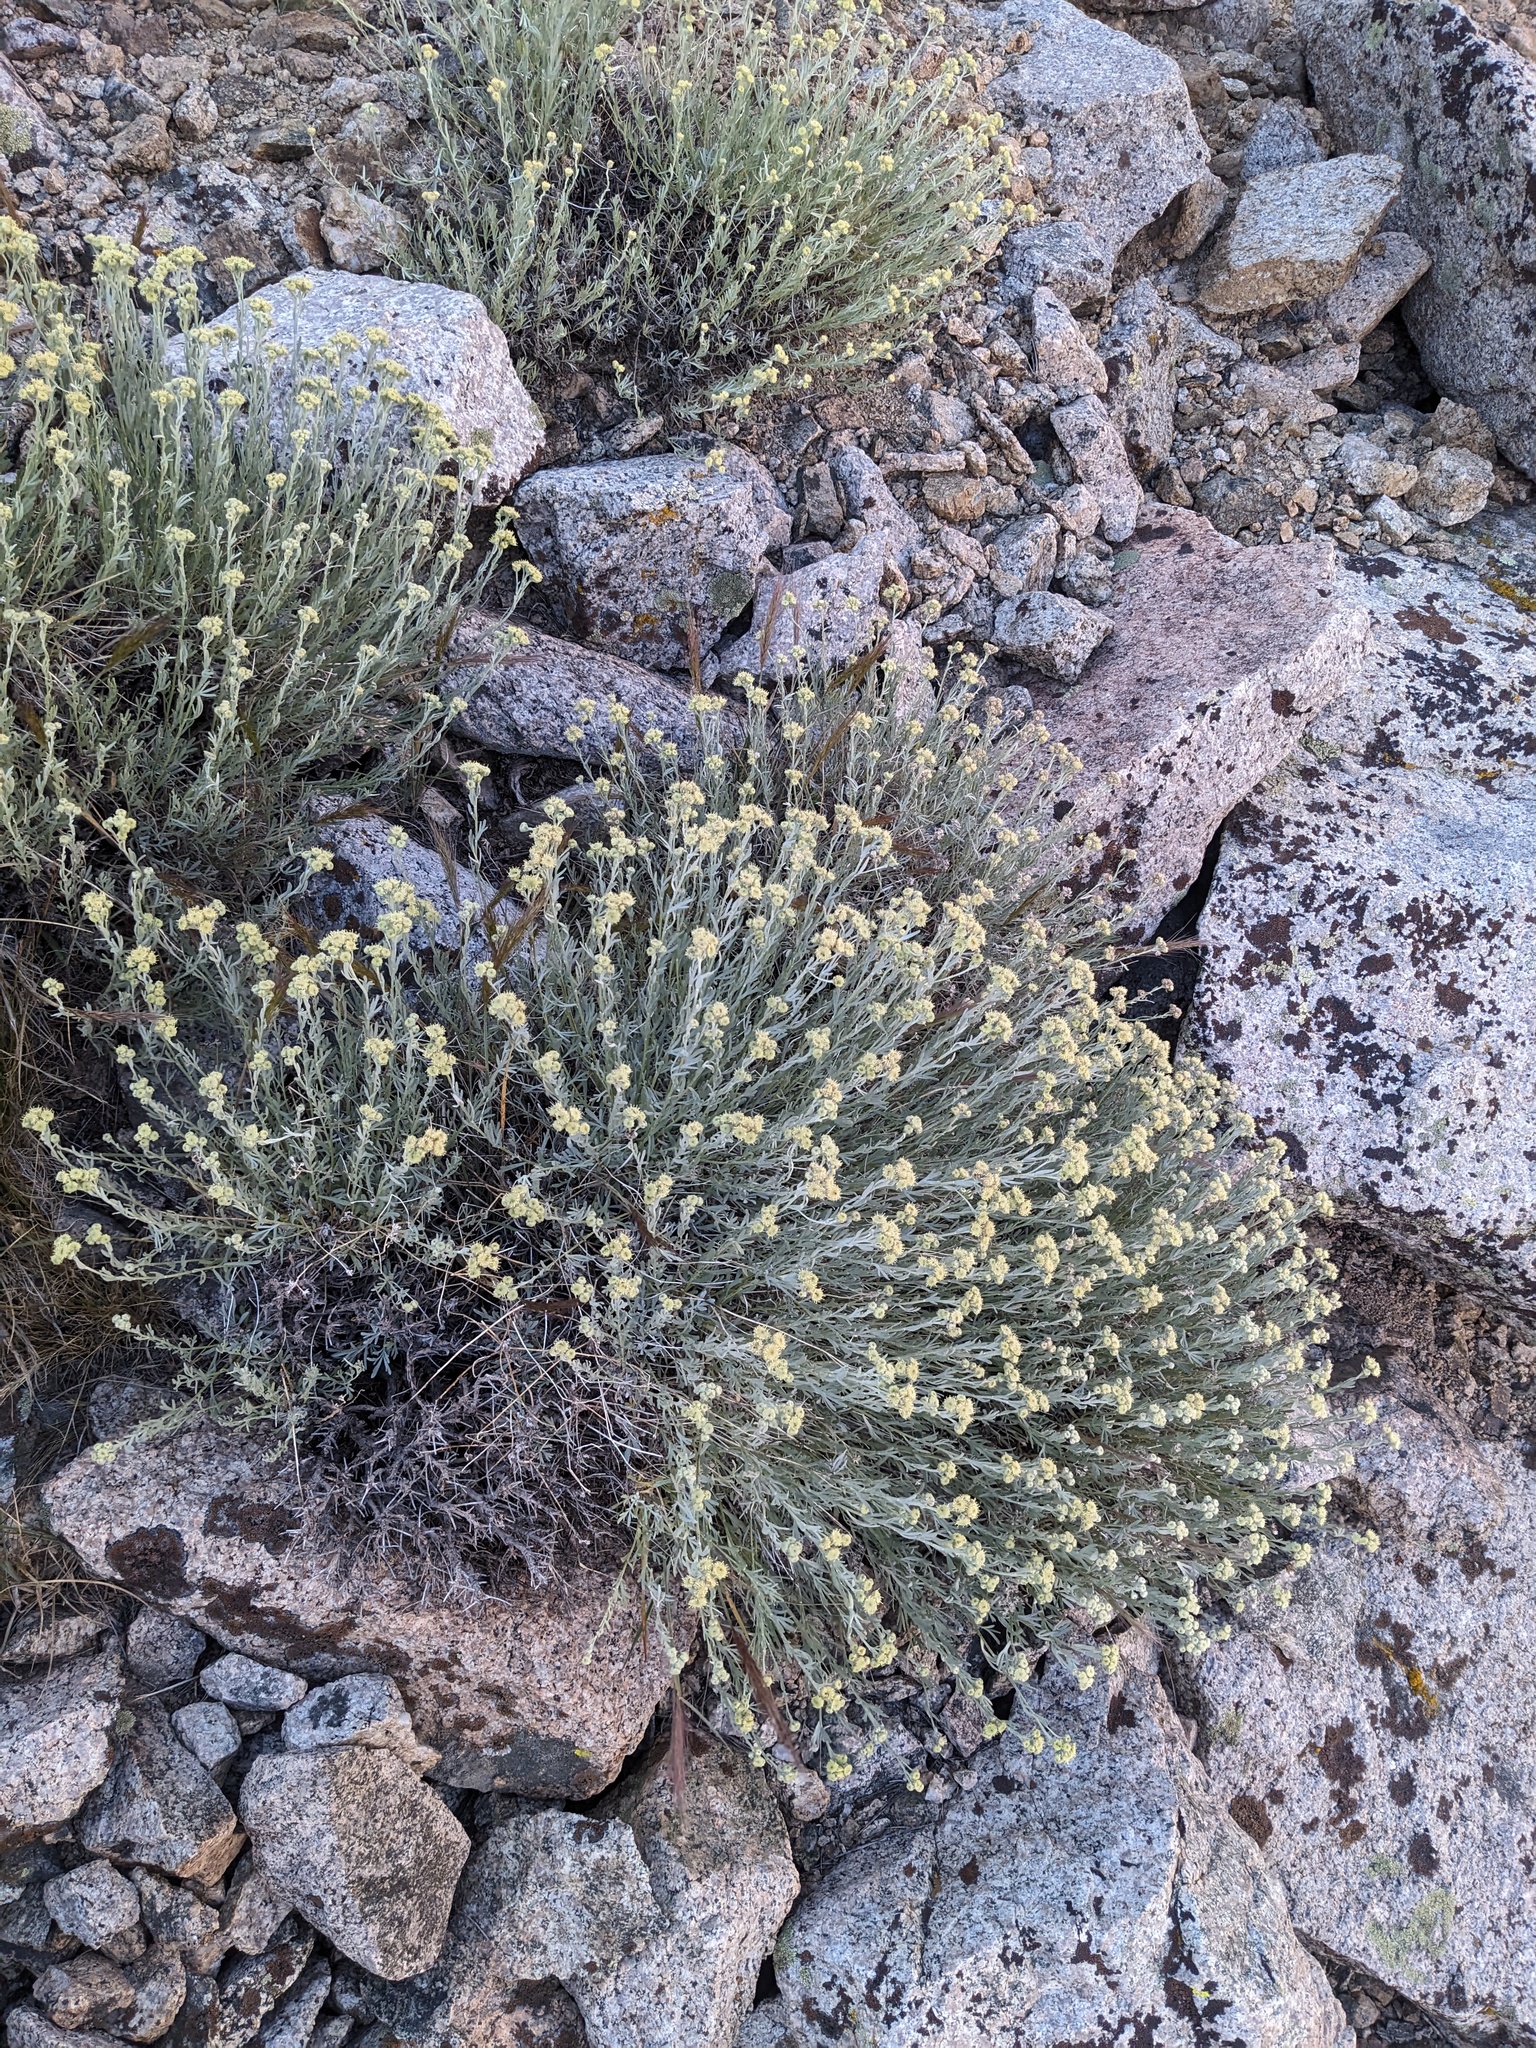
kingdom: Plantae
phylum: Tracheophyta
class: Magnoliopsida
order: Asterales
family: Asteraceae
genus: Artemisia
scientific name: Artemisia albicans
